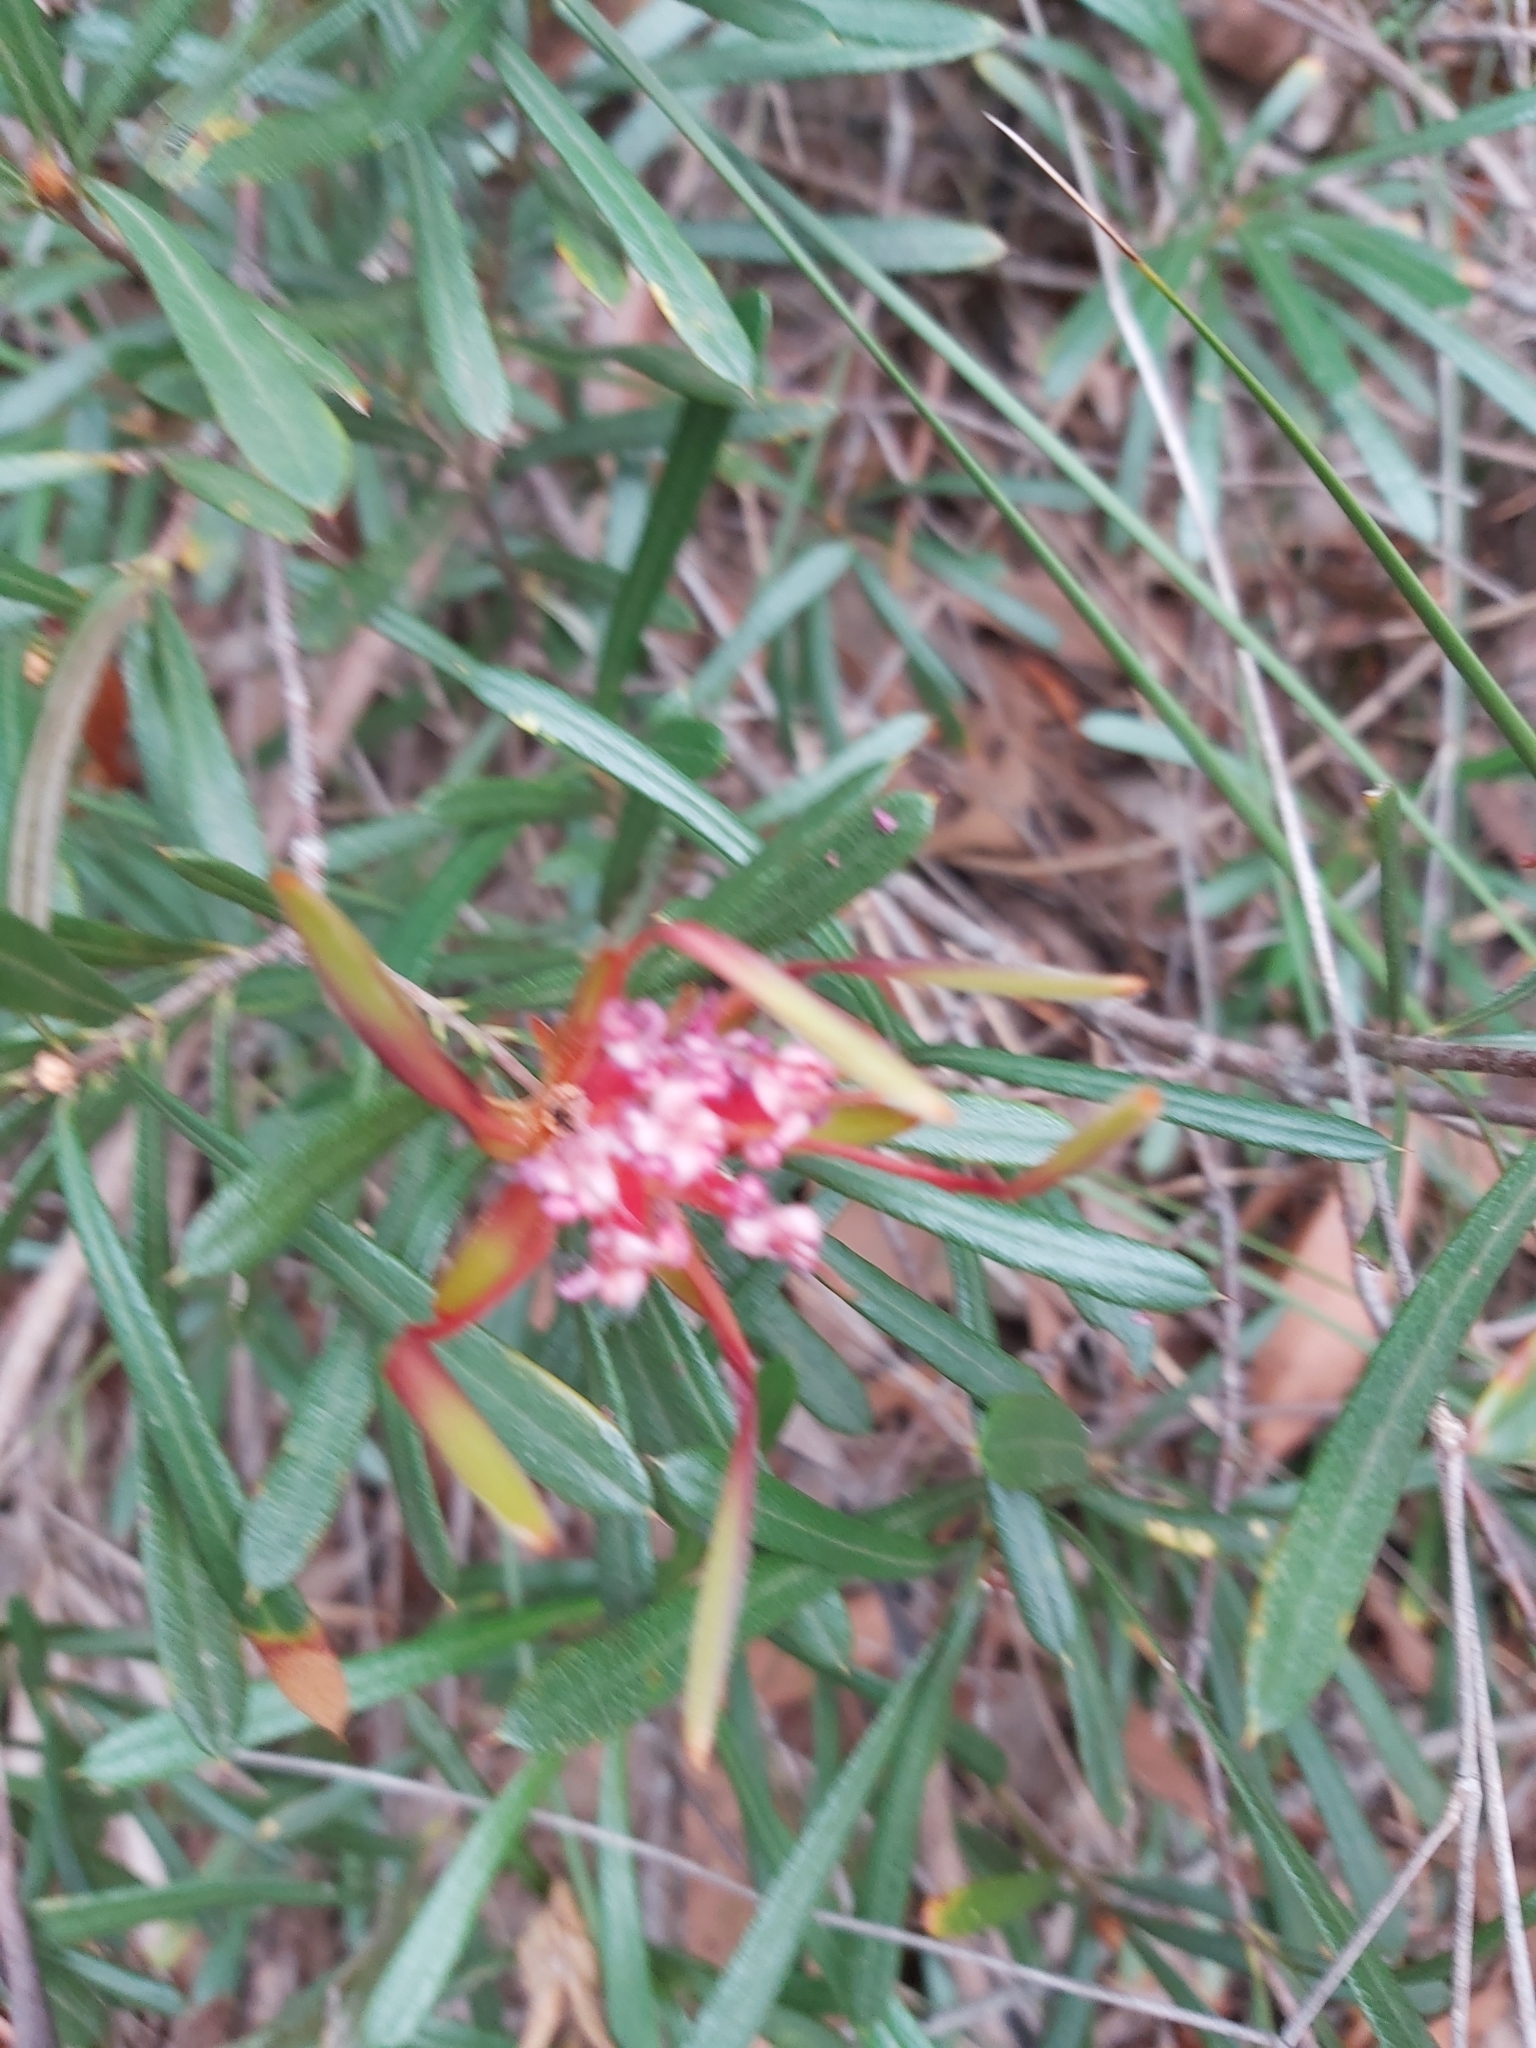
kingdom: Plantae
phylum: Tracheophyta
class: Magnoliopsida
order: Proteales
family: Proteaceae
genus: Lambertia
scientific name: Lambertia formosa
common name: Mountain-devil
